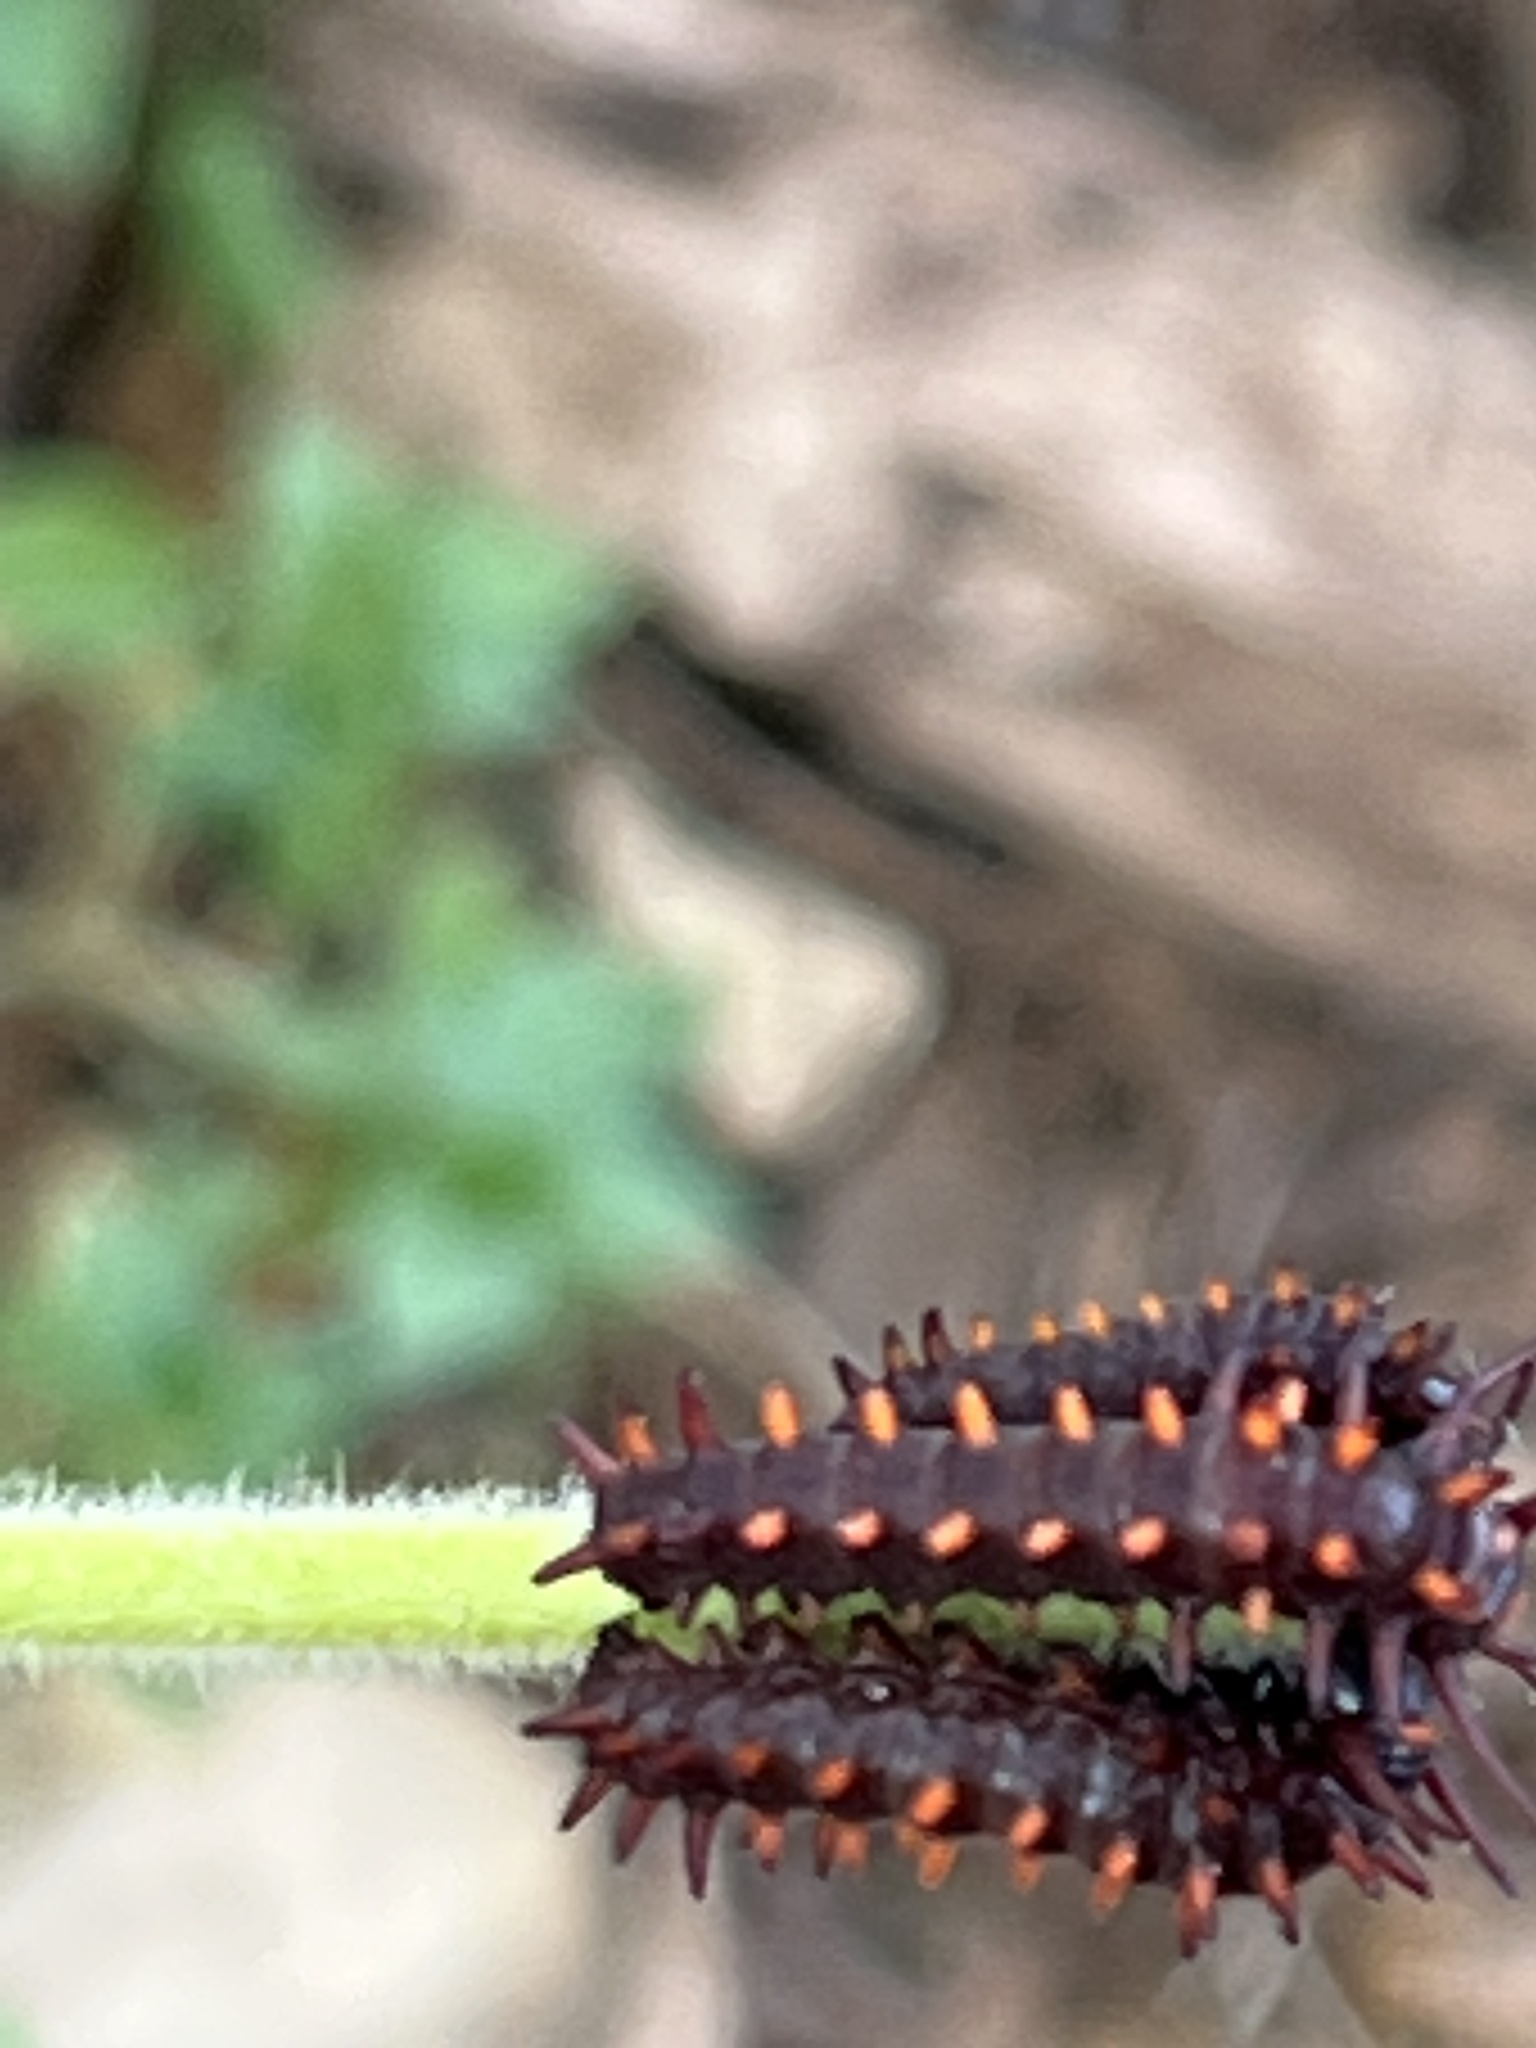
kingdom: Animalia
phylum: Arthropoda
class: Insecta
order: Lepidoptera
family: Papilionidae
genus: Battus
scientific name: Battus philenor
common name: Pipevine swallowtail
